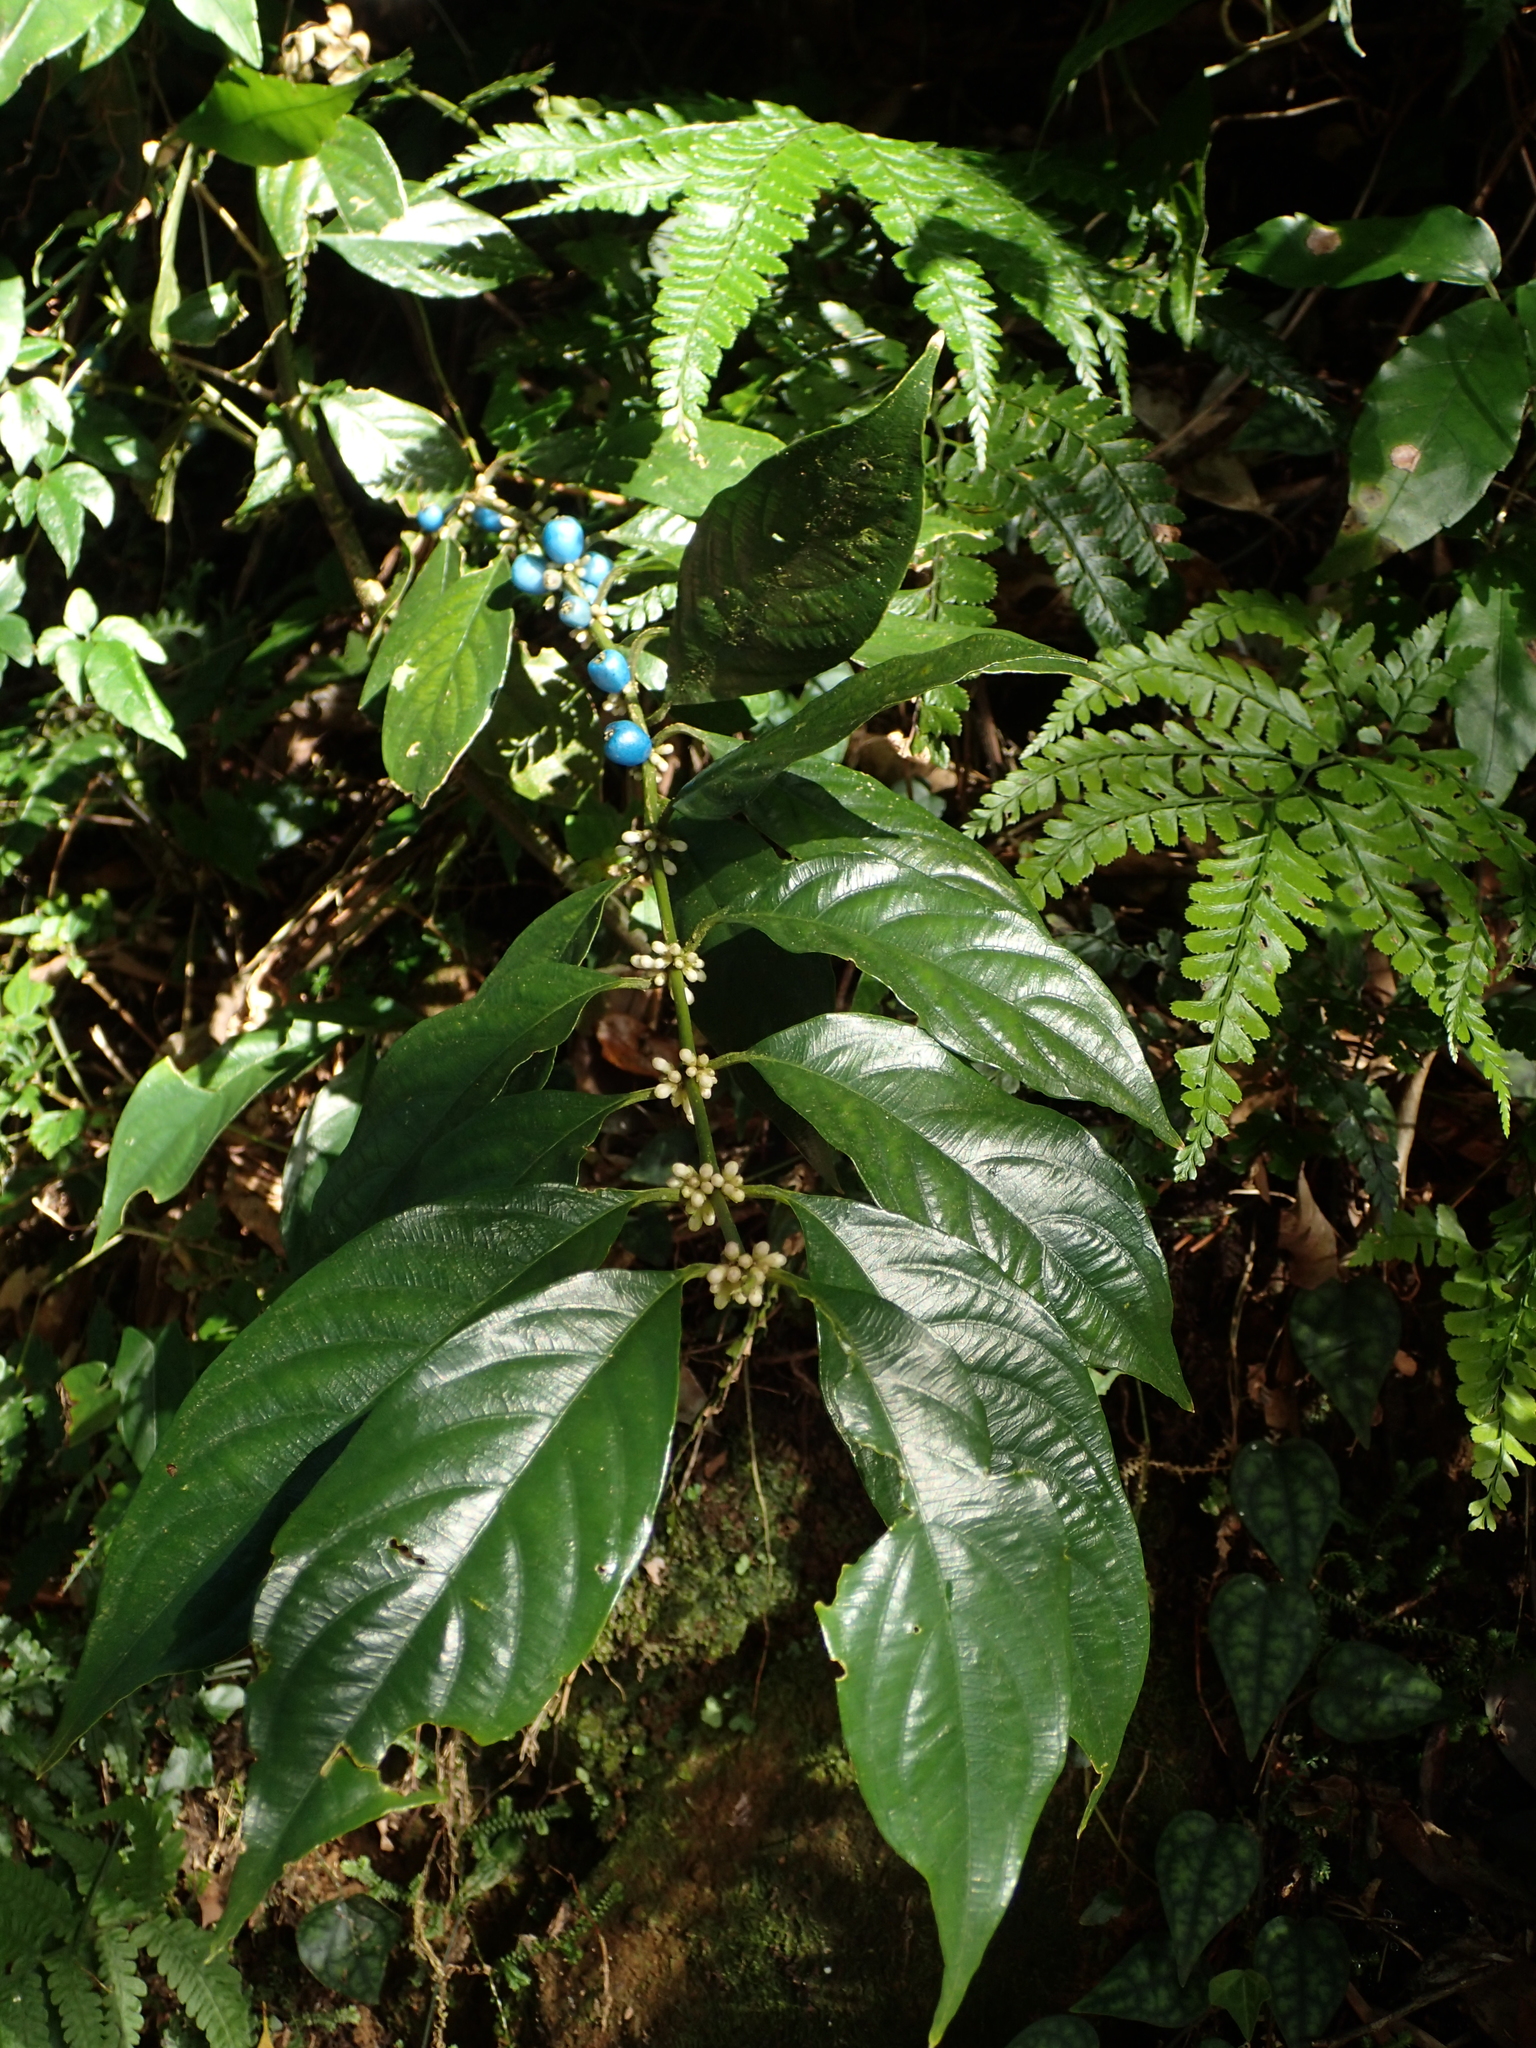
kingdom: Plantae
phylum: Tracheophyta
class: Magnoliopsida
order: Gentianales
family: Rubiaceae
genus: Lasianthus
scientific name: Lasianthus fordii
